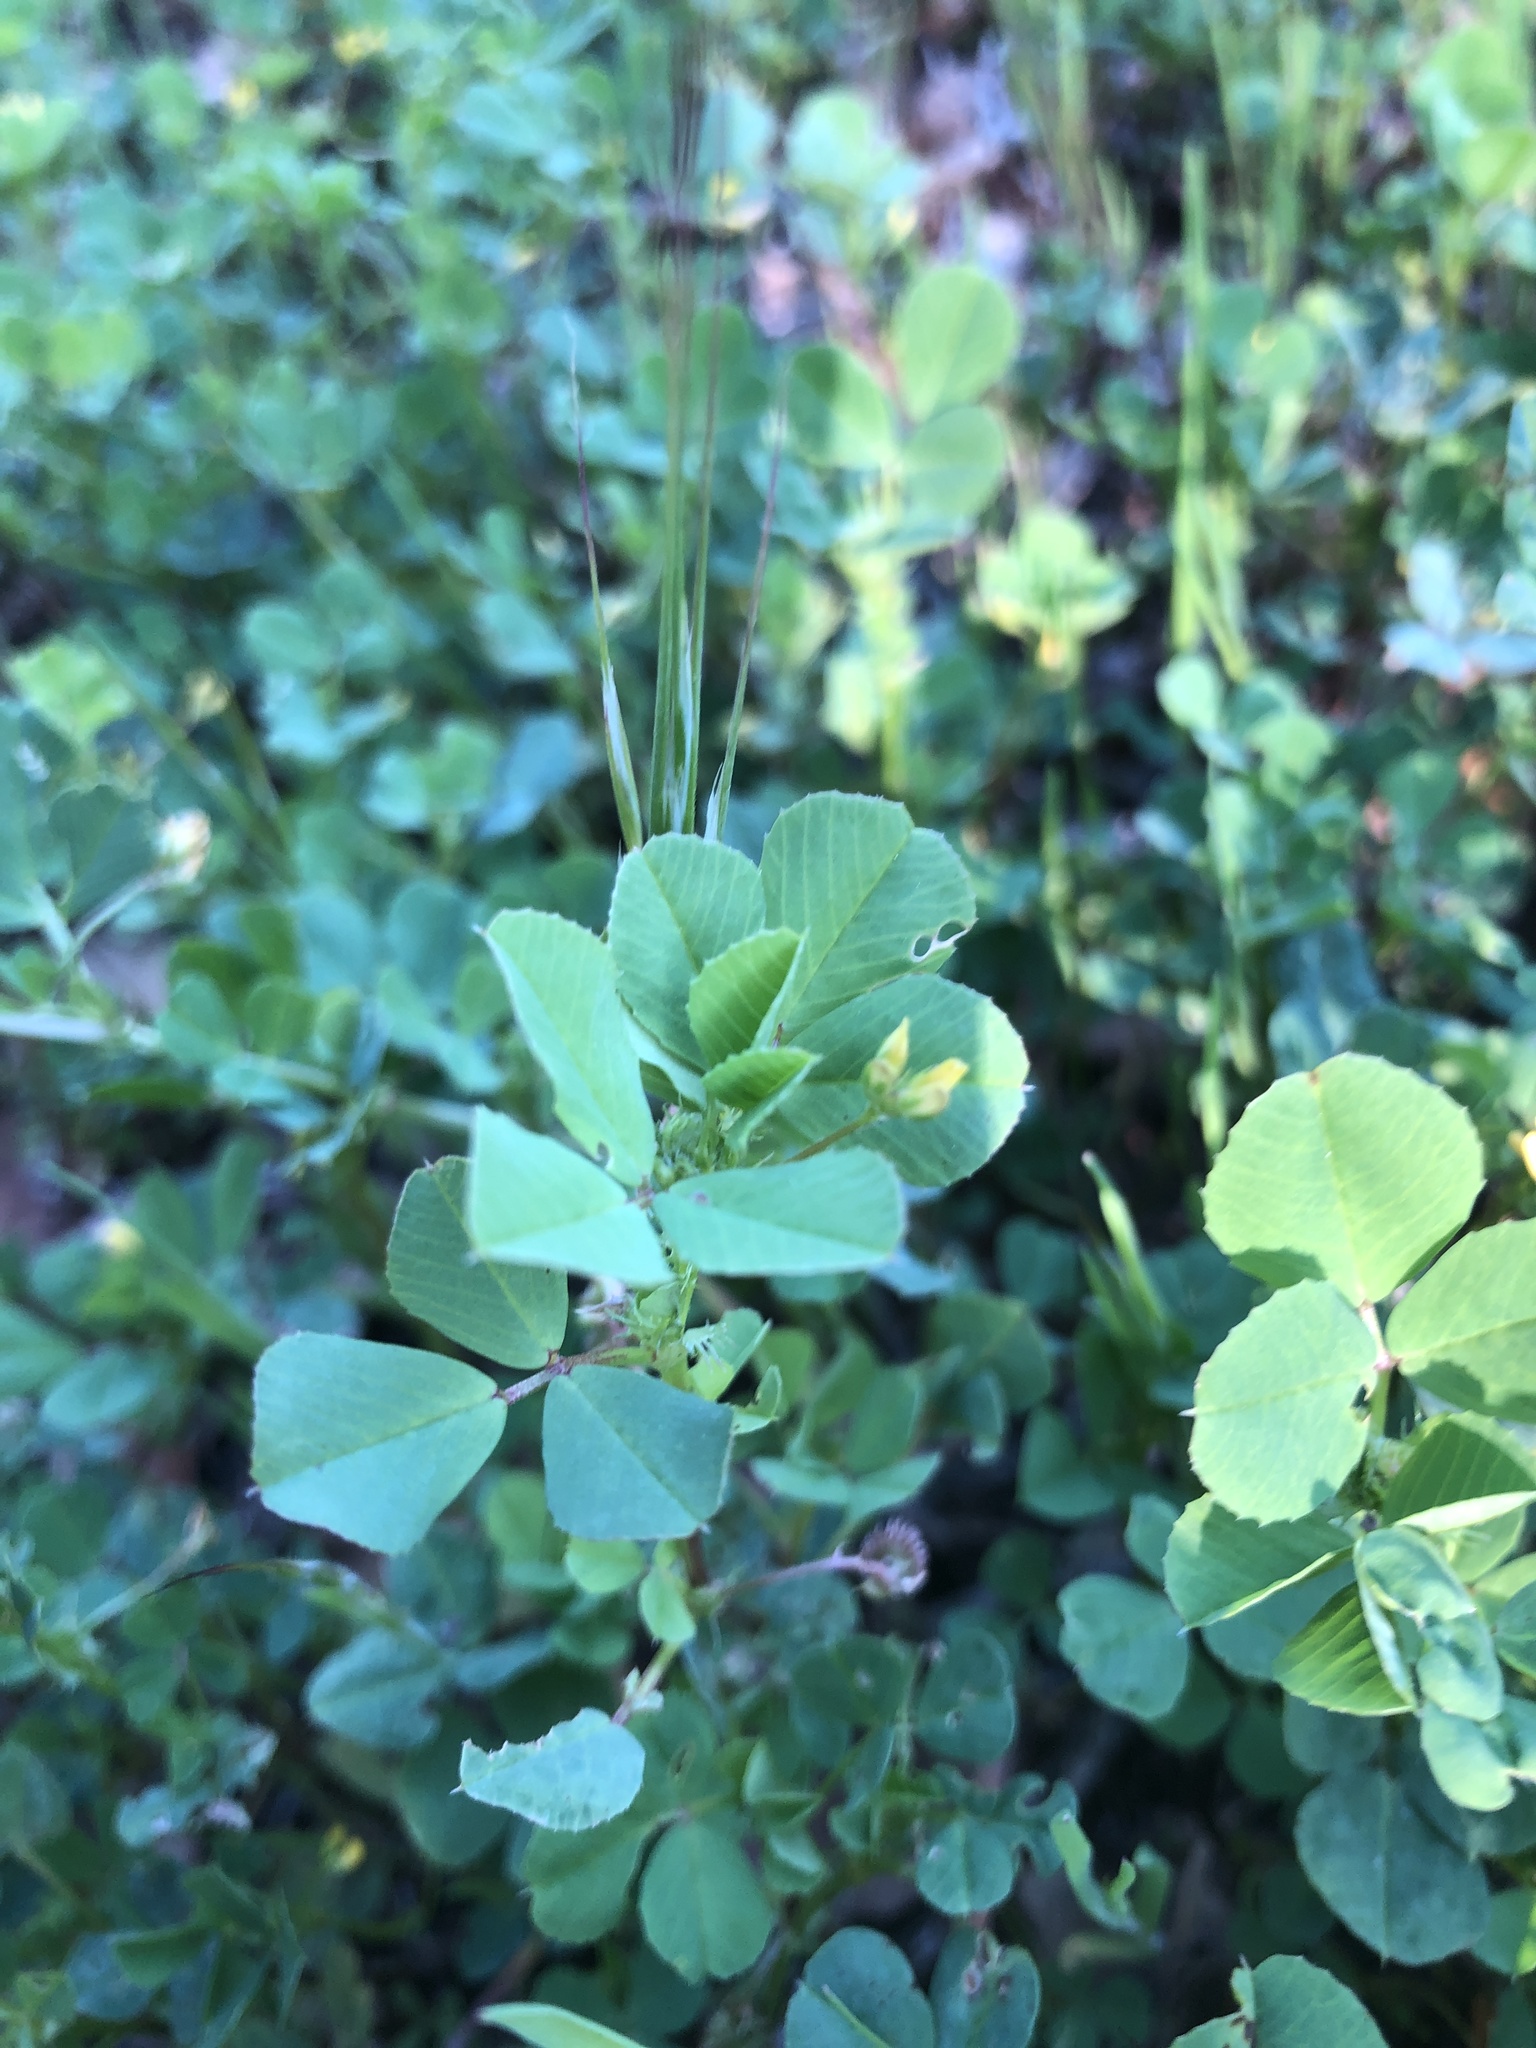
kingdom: Plantae
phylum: Tracheophyta
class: Magnoliopsida
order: Fabales
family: Fabaceae
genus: Medicago
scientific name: Medicago polymorpha
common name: Burclover
